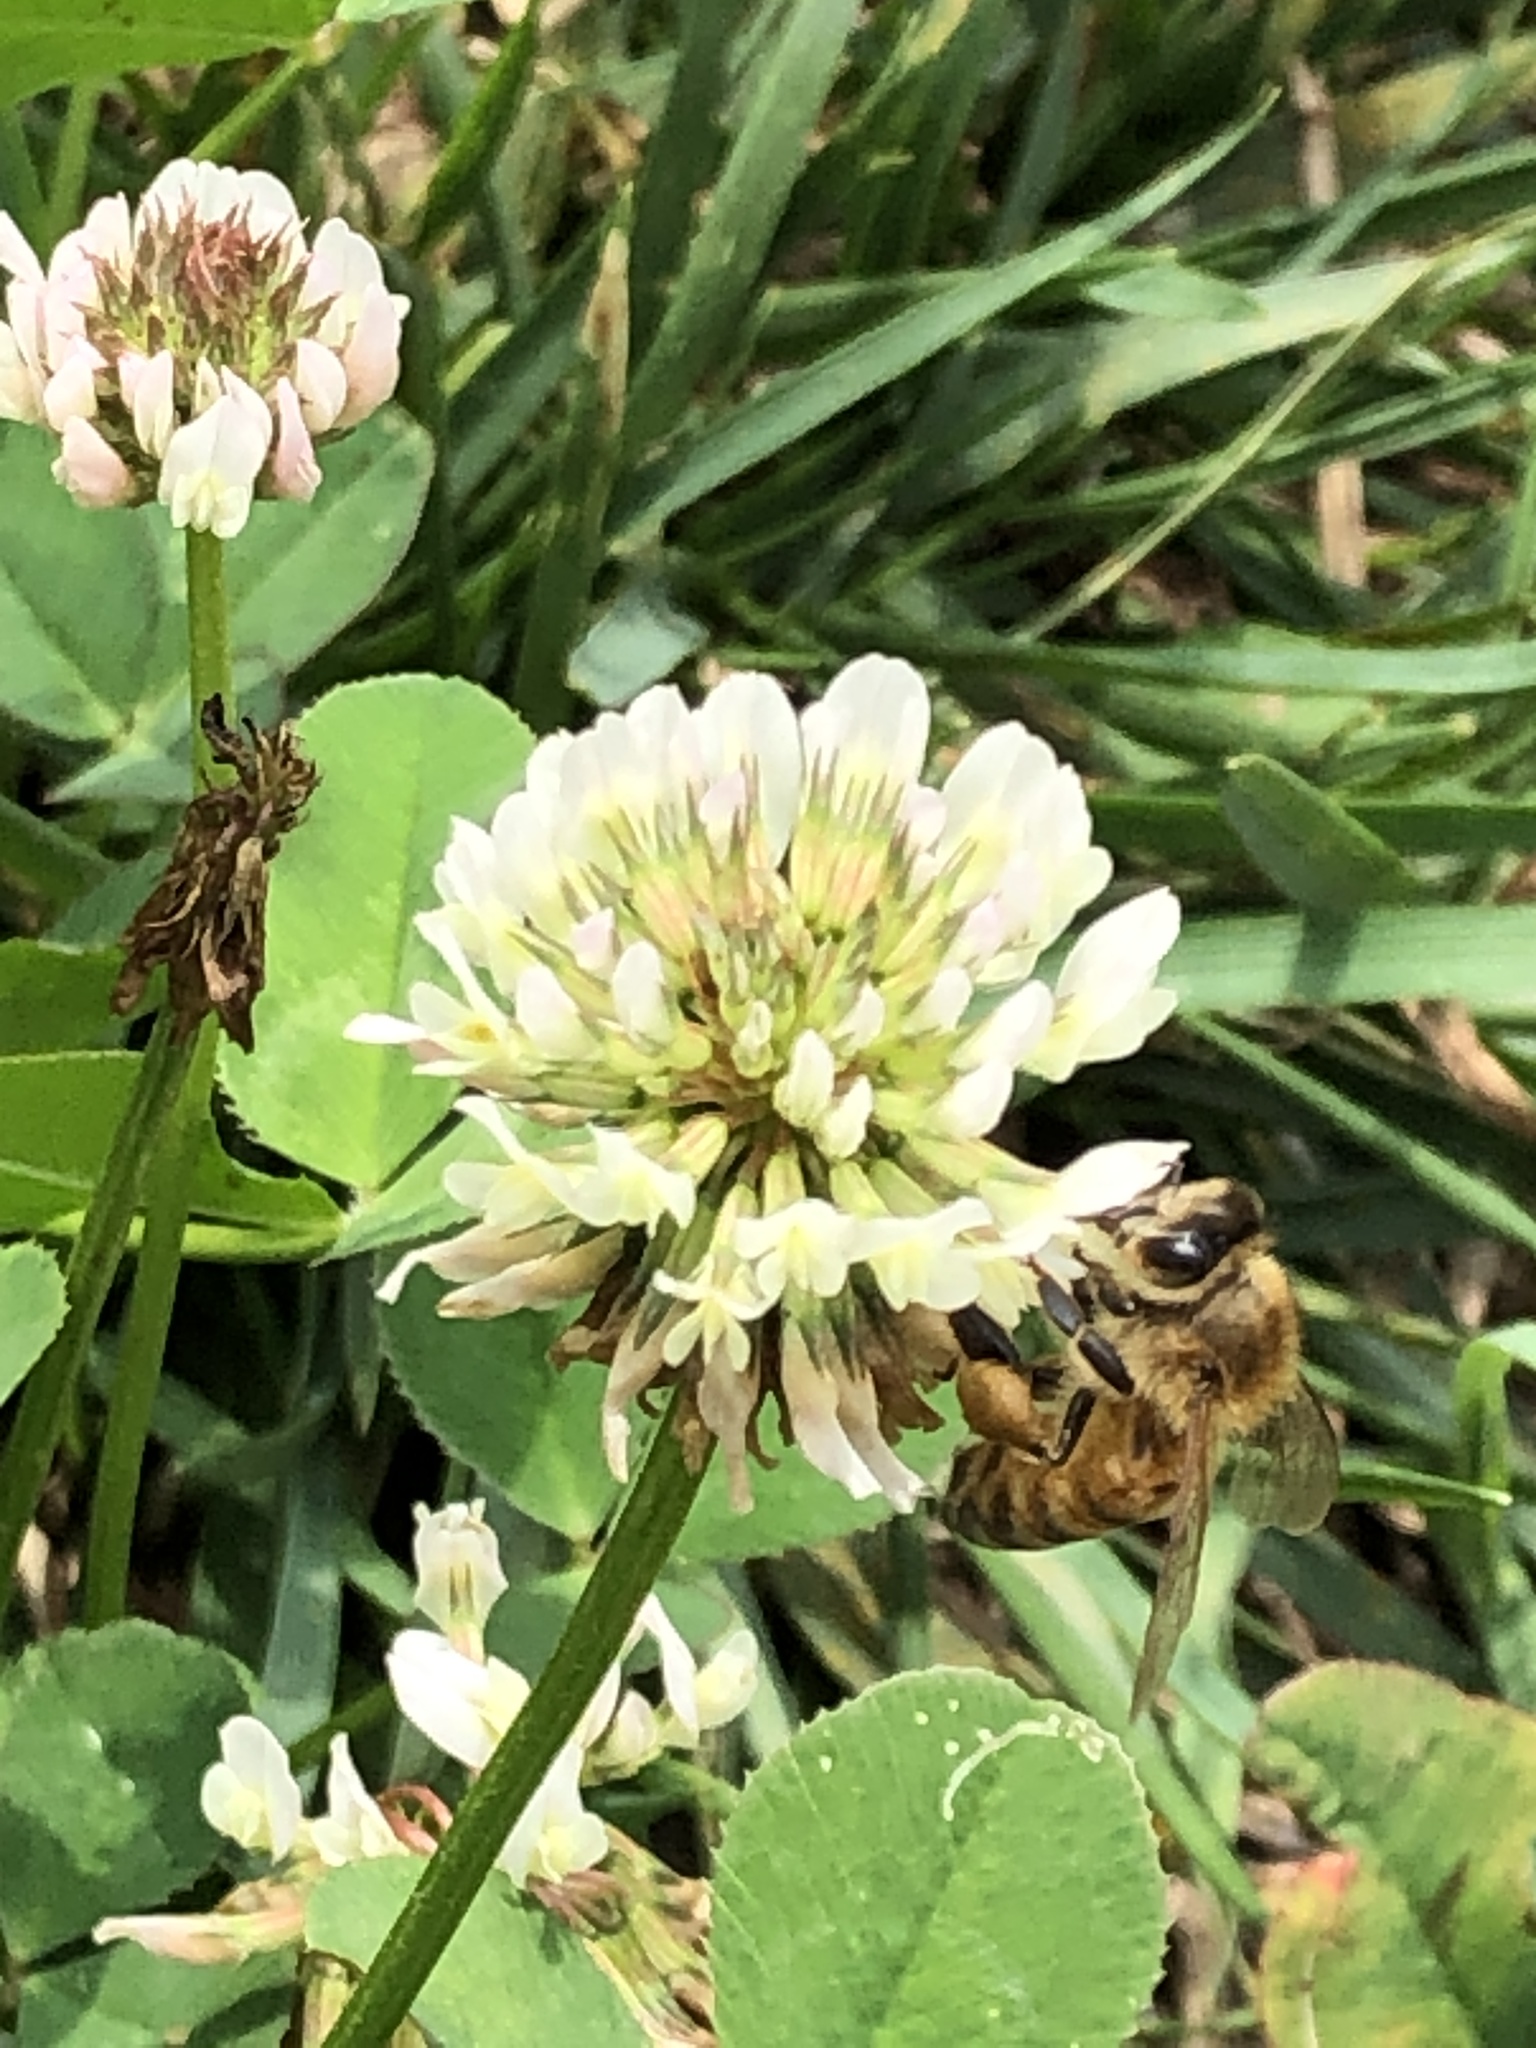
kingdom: Animalia
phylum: Arthropoda
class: Insecta
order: Hymenoptera
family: Apidae
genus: Apis
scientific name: Apis mellifera
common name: Honey bee
